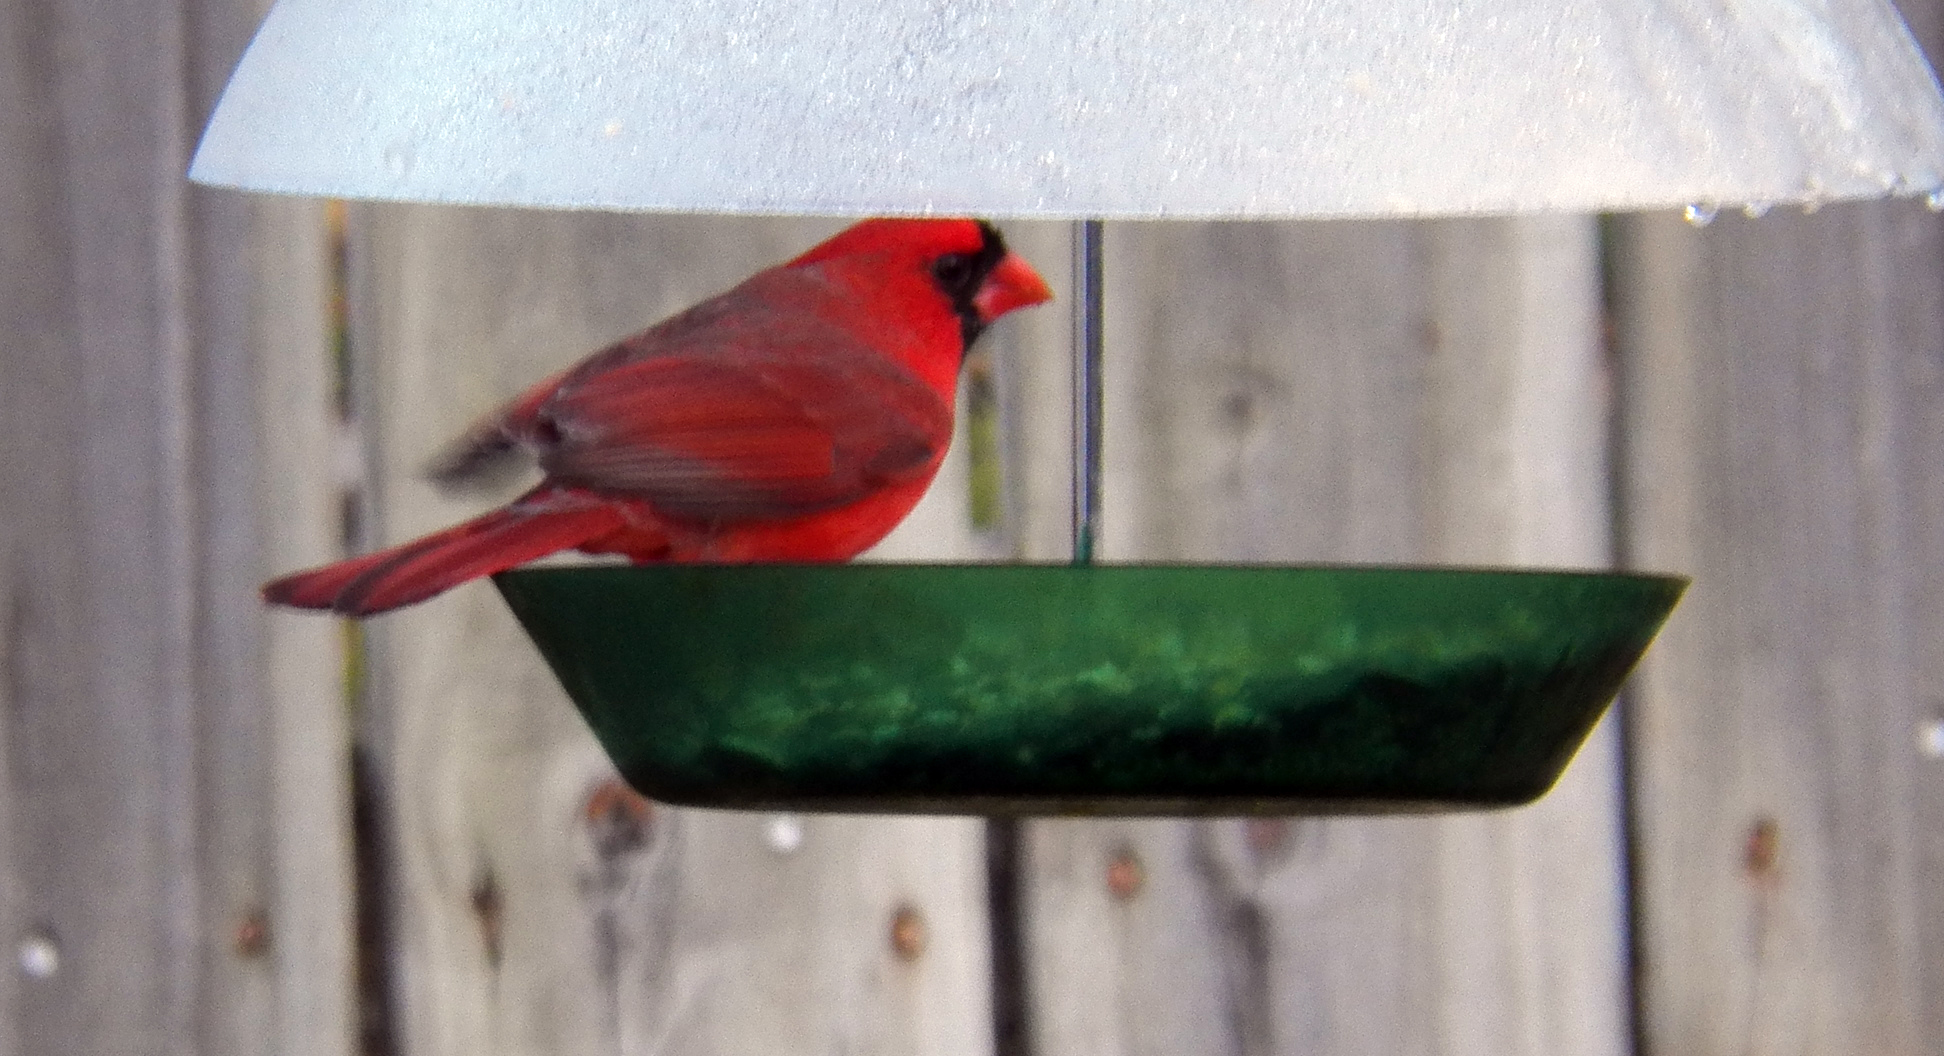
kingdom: Animalia
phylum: Chordata
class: Aves
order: Passeriformes
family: Cardinalidae
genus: Cardinalis
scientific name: Cardinalis cardinalis
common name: Northern cardinal
